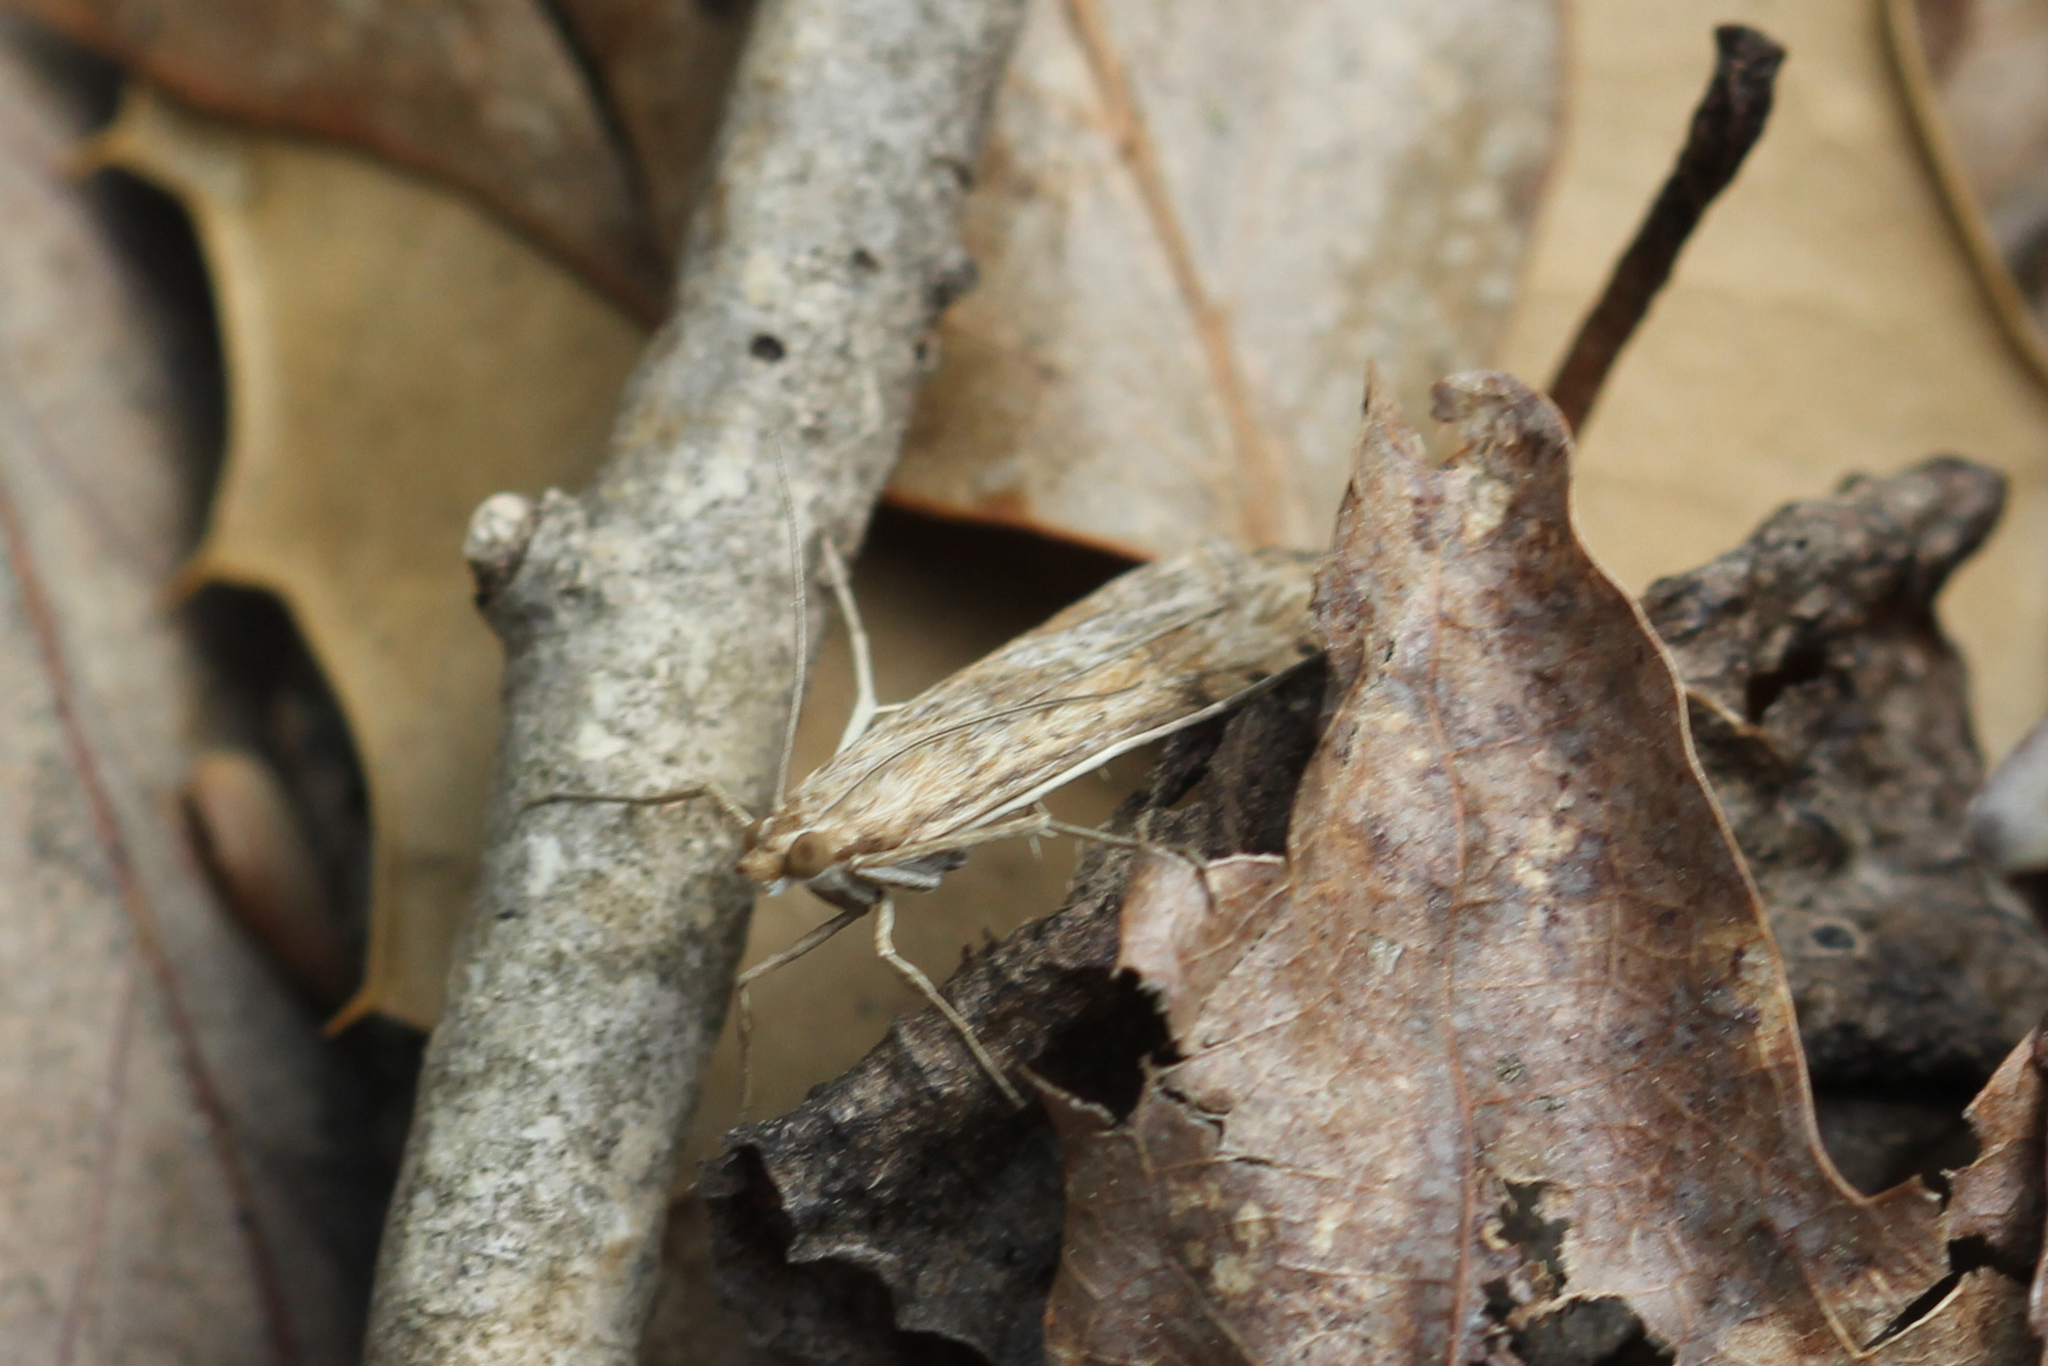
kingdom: Animalia
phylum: Arthropoda
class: Insecta
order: Lepidoptera
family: Crambidae
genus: Nomophila
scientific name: Nomophila nearctica
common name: American rush veneer
